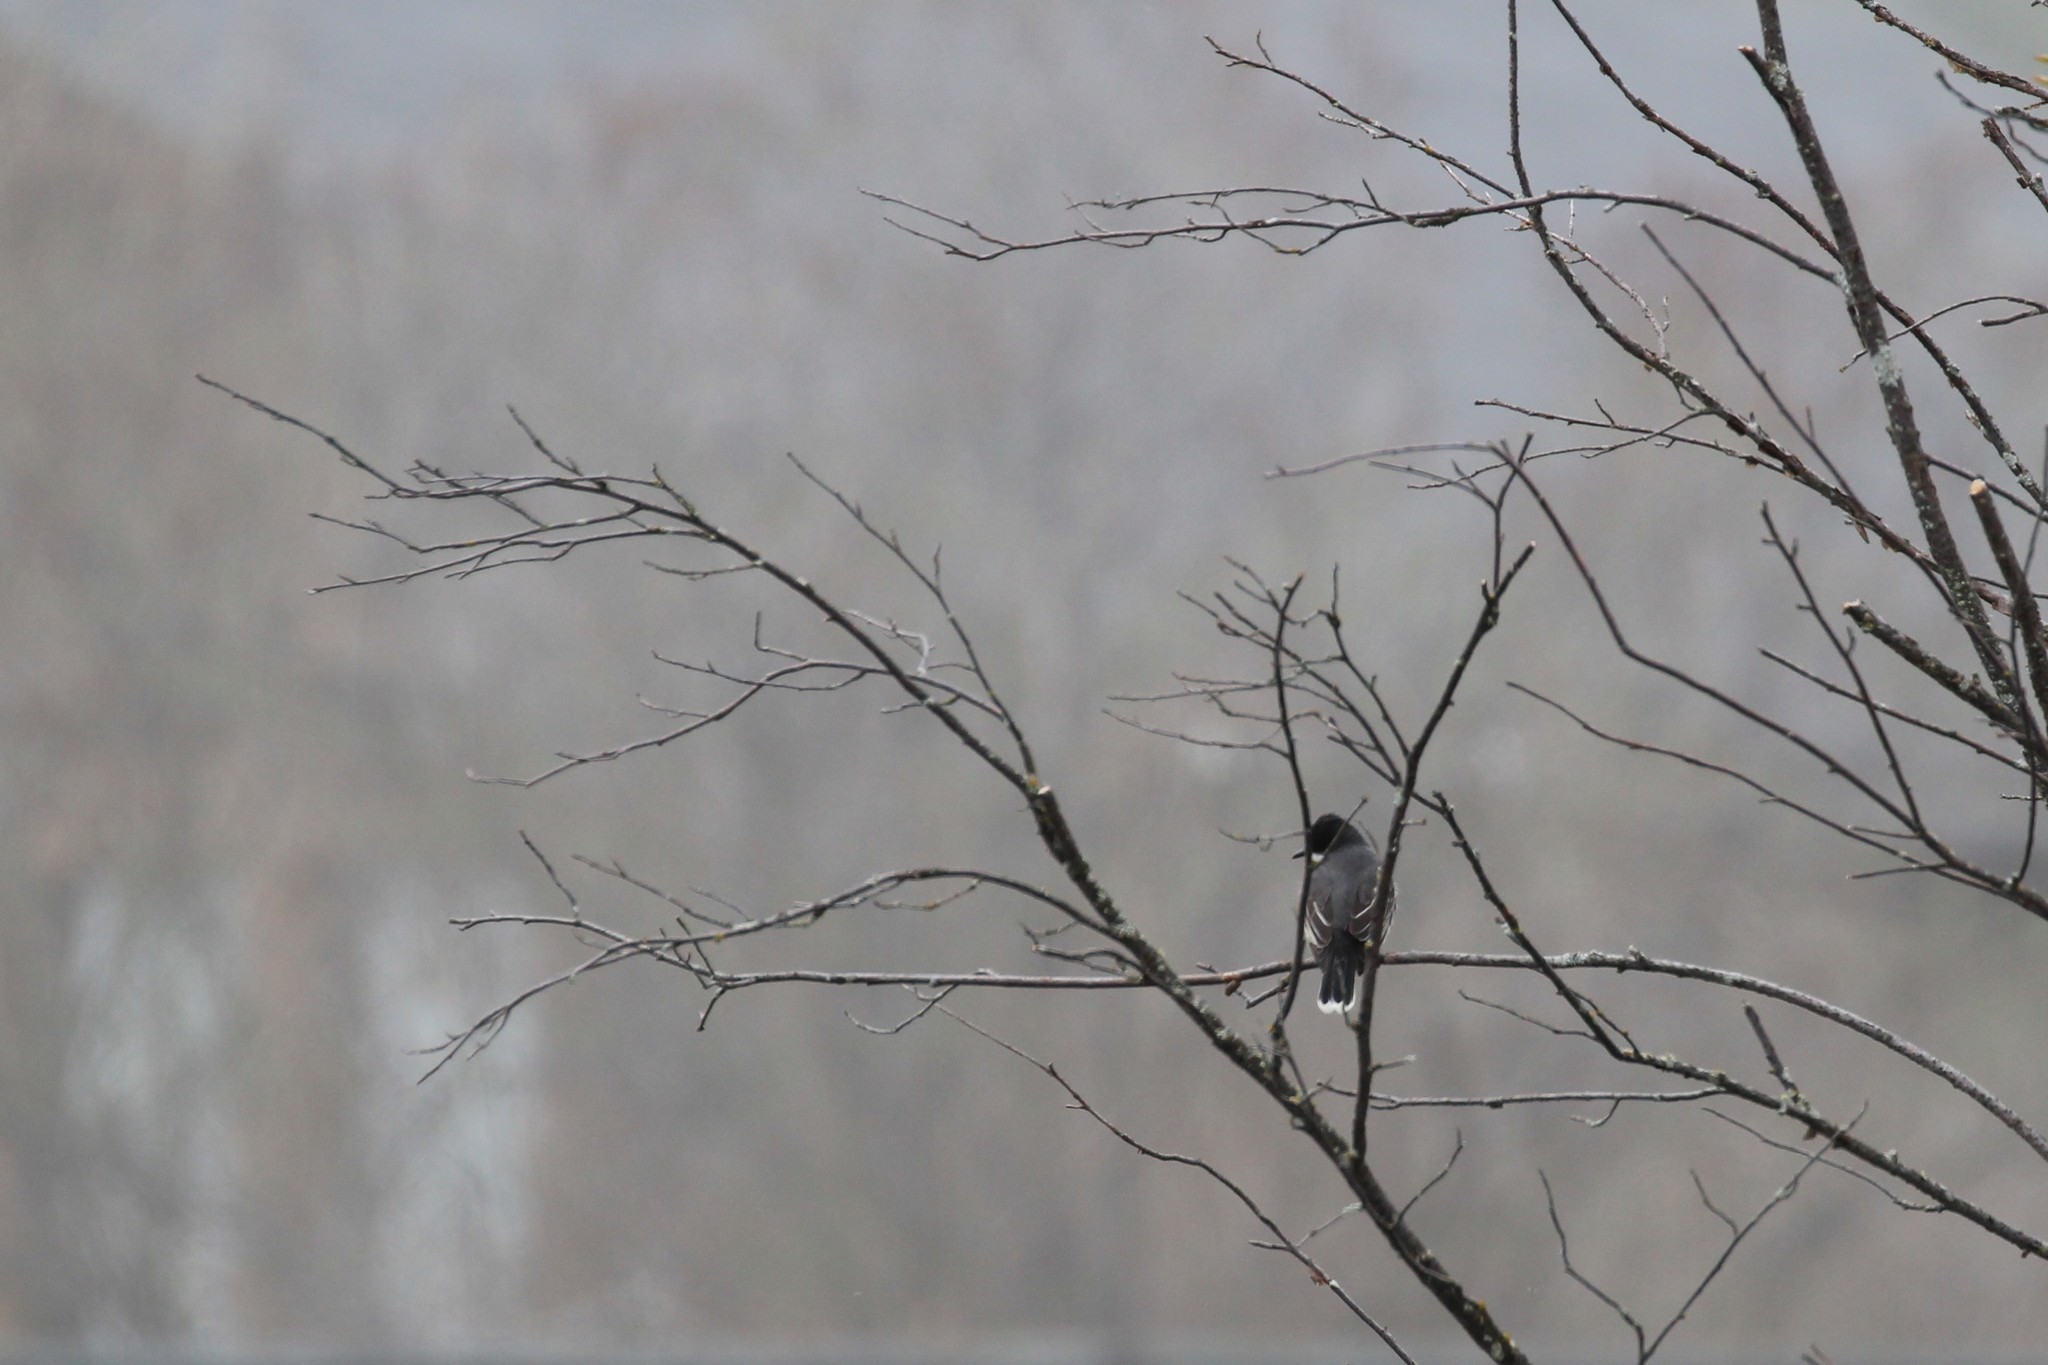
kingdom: Animalia
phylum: Chordata
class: Aves
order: Passeriformes
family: Tyrannidae
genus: Tyrannus
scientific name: Tyrannus tyrannus
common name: Eastern kingbird
